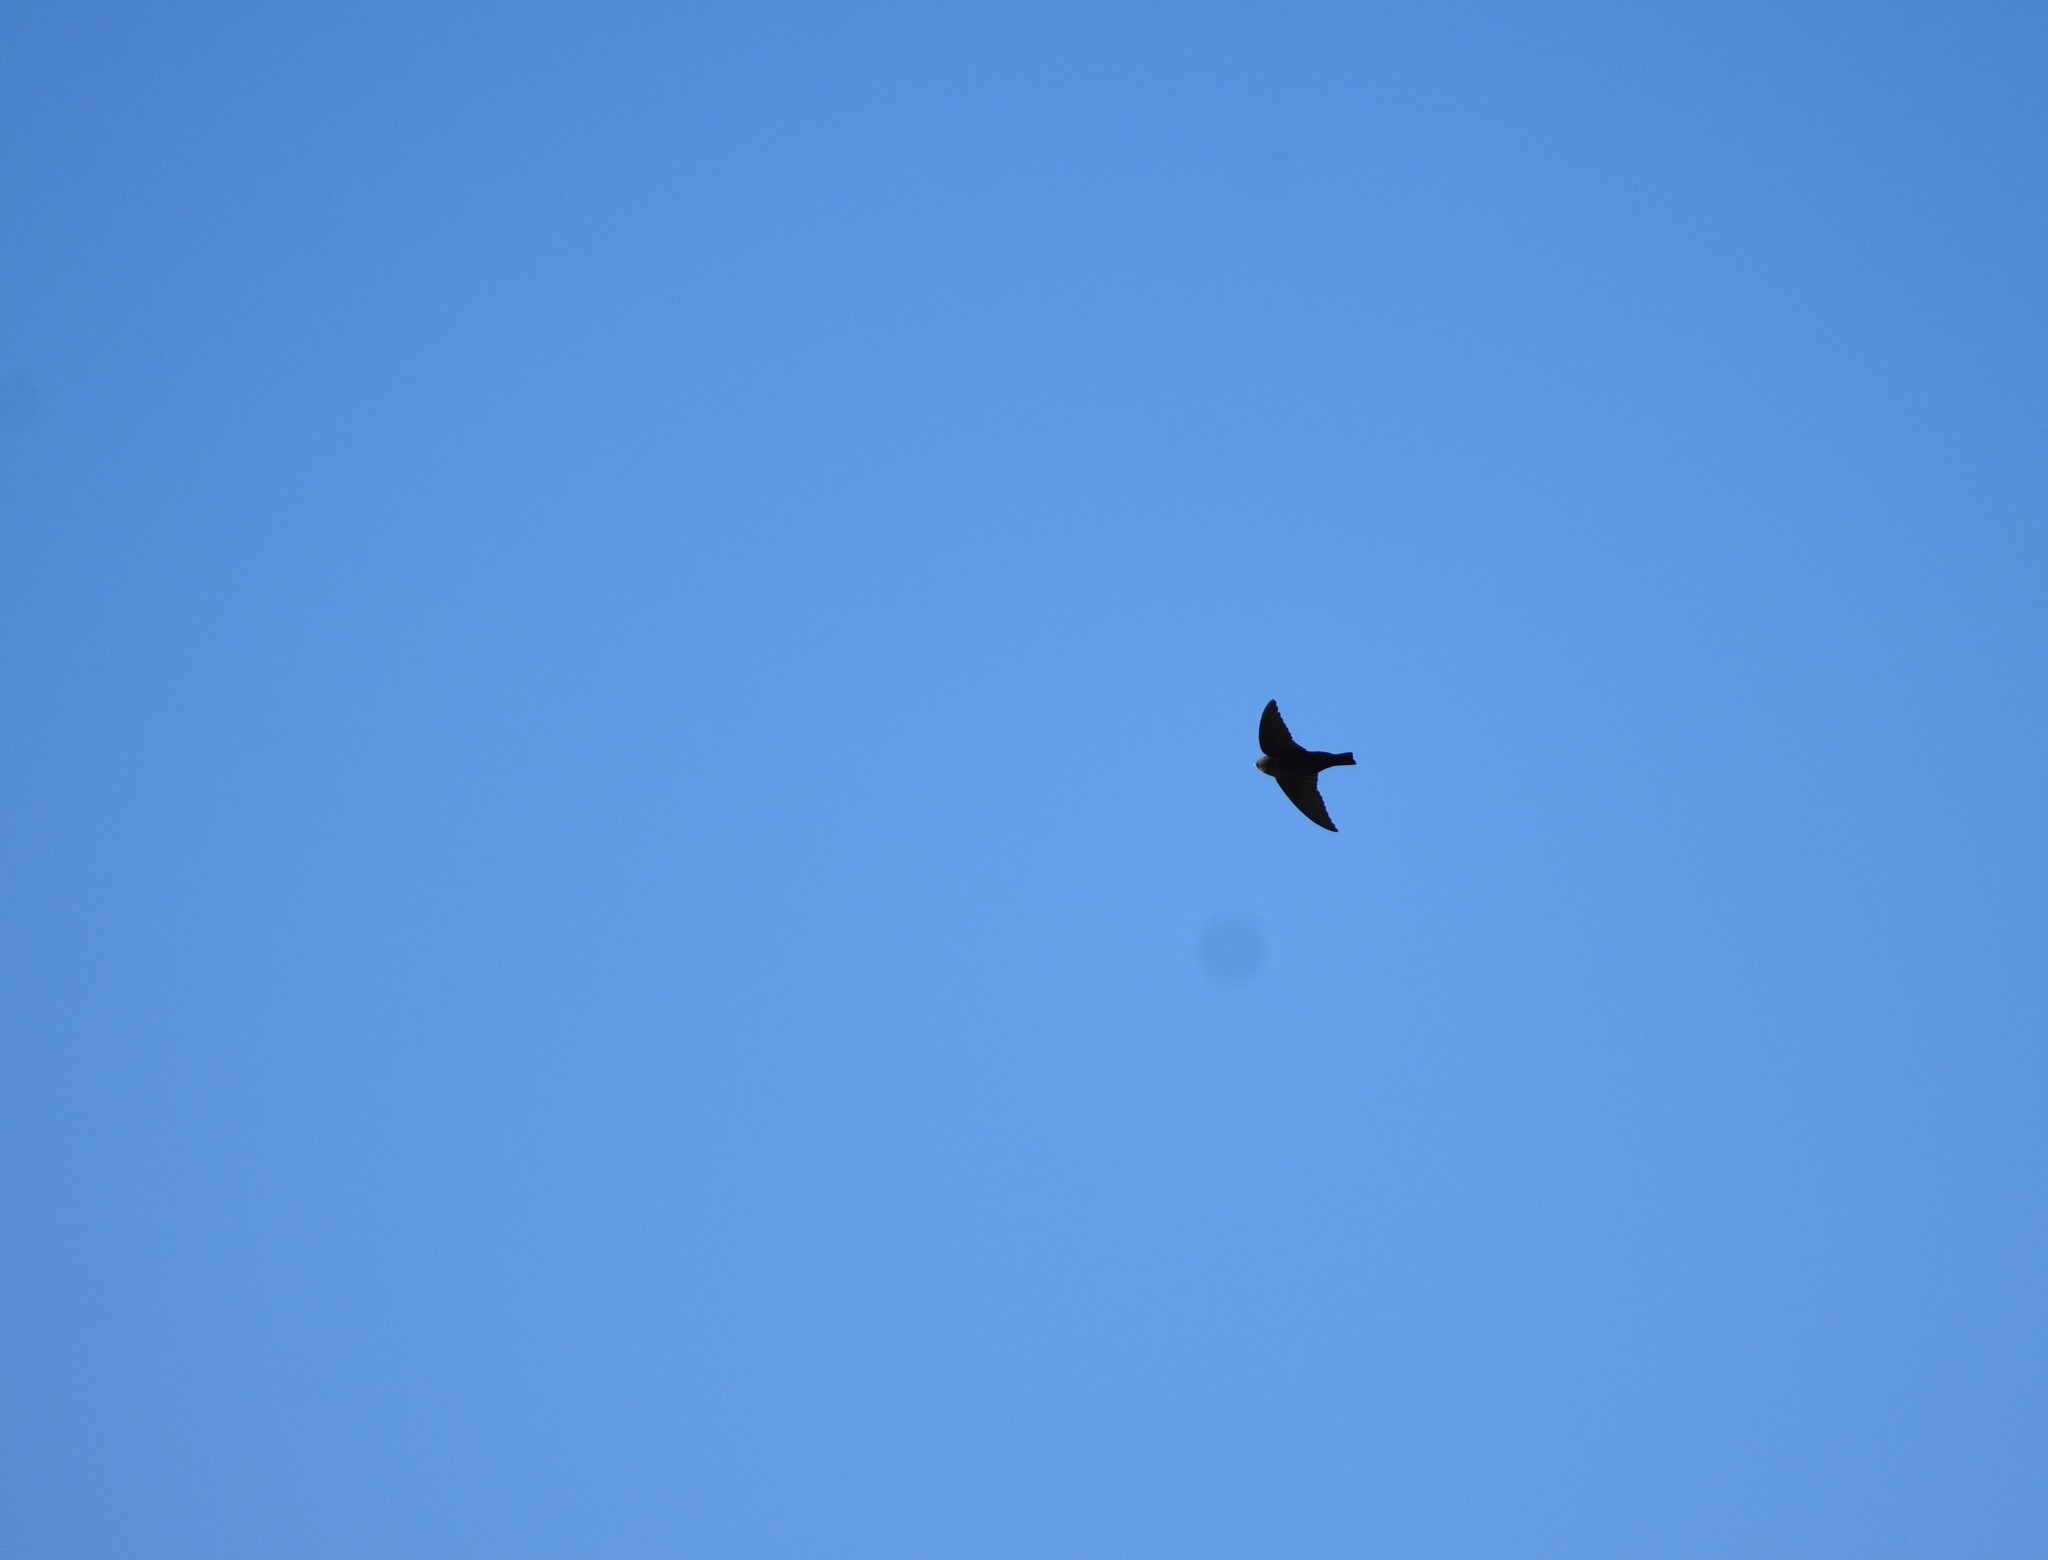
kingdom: Animalia
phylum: Chordata
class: Aves
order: Passeriformes
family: Hirundinidae
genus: Ptyonoprogne
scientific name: Ptyonoprogne fuligula
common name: Rock martin
